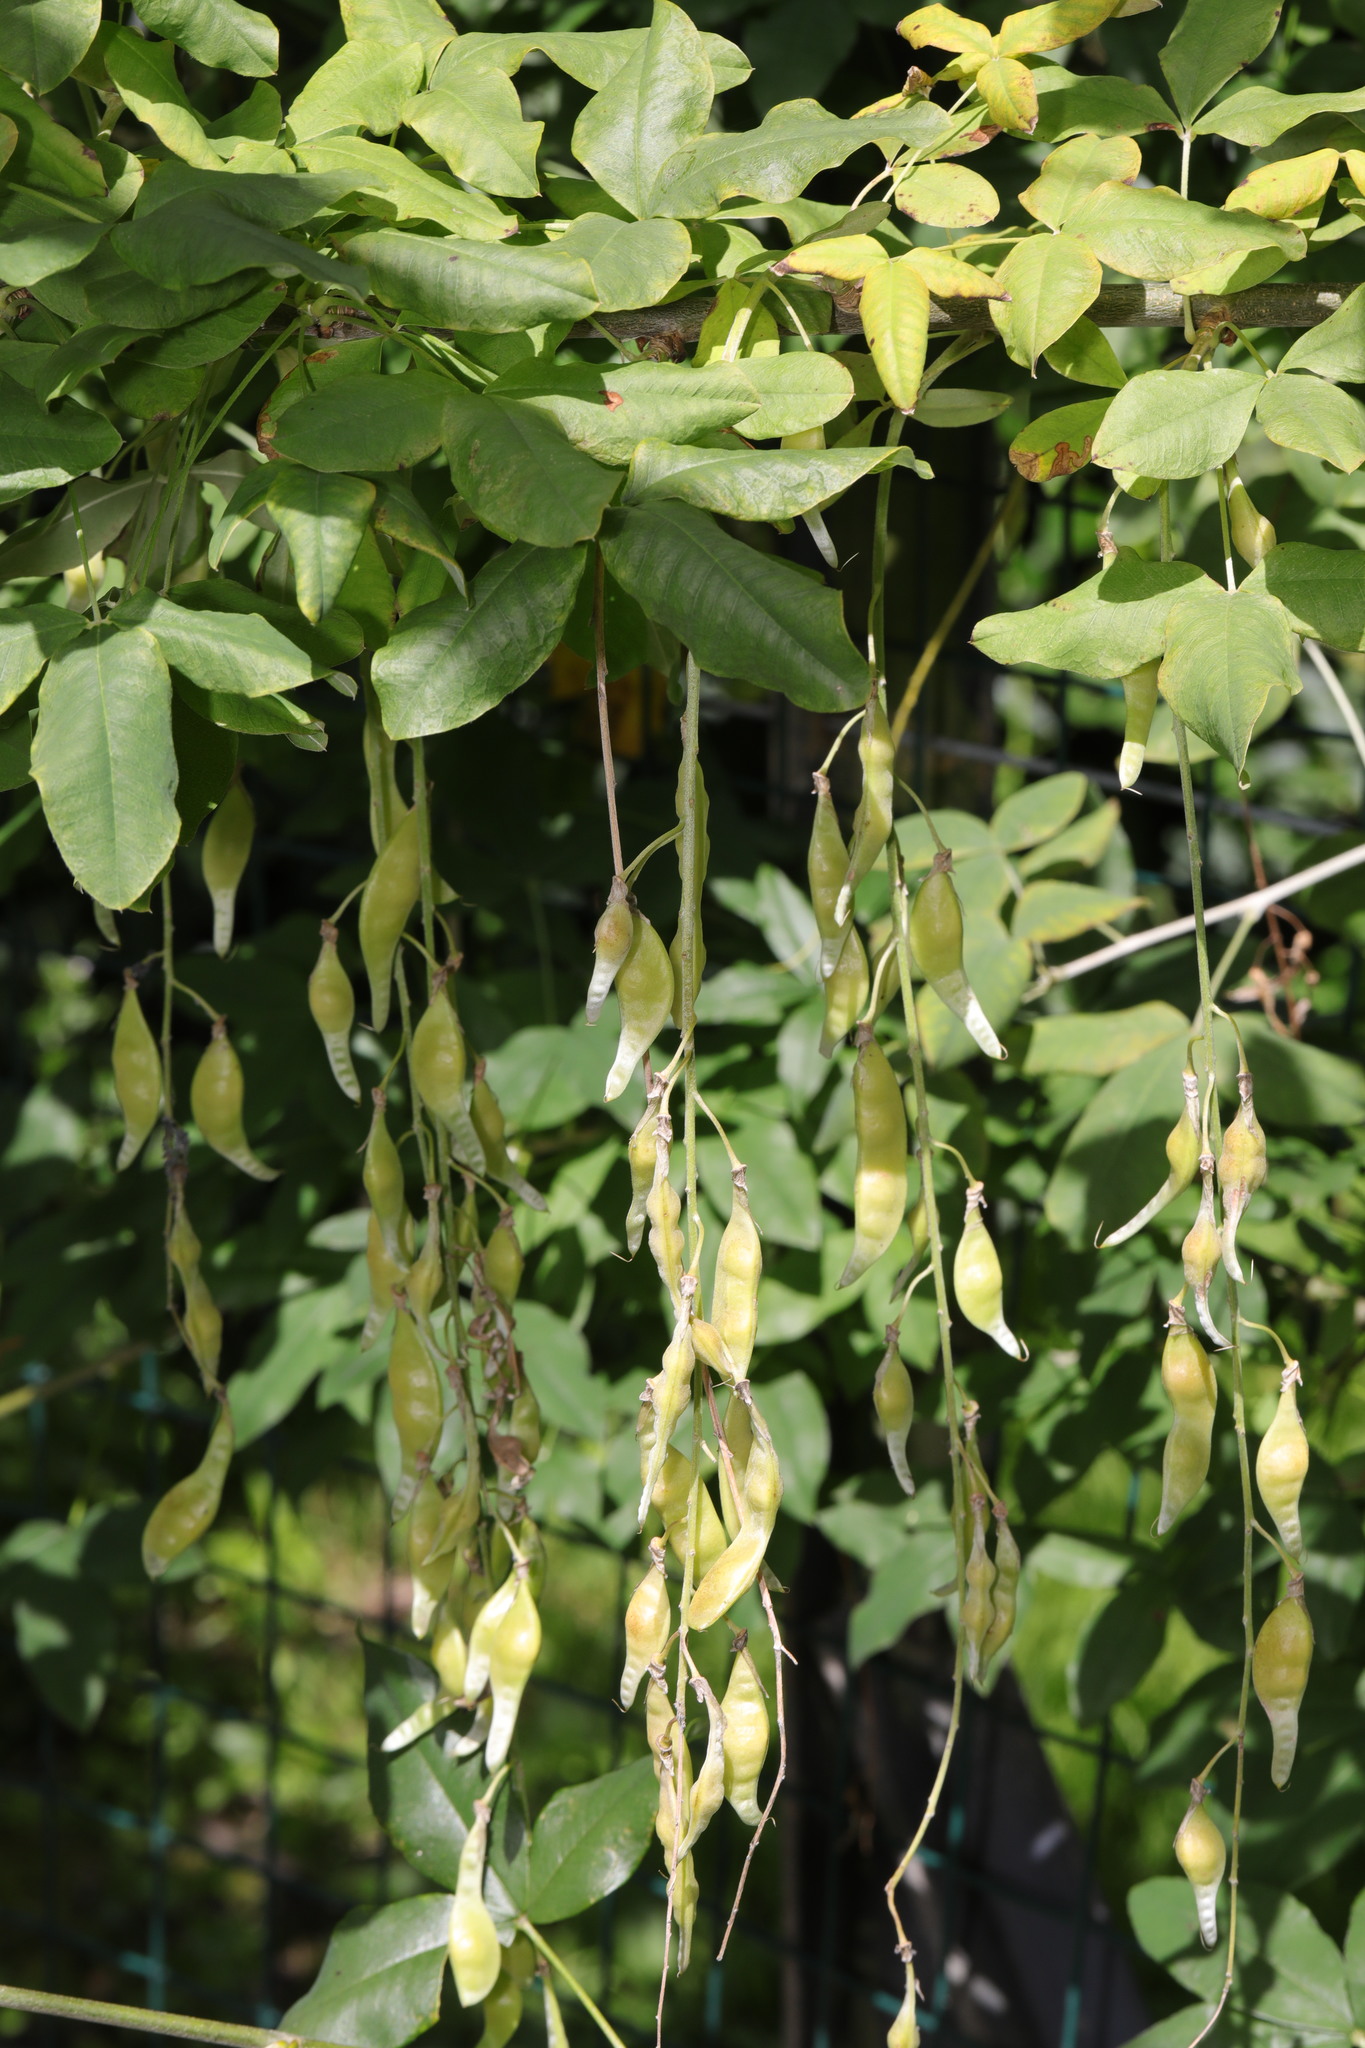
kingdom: Plantae
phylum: Tracheophyta
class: Magnoliopsida
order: Fabales
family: Fabaceae
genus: Laburnum
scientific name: Laburnum anagyroides
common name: Laburnum
